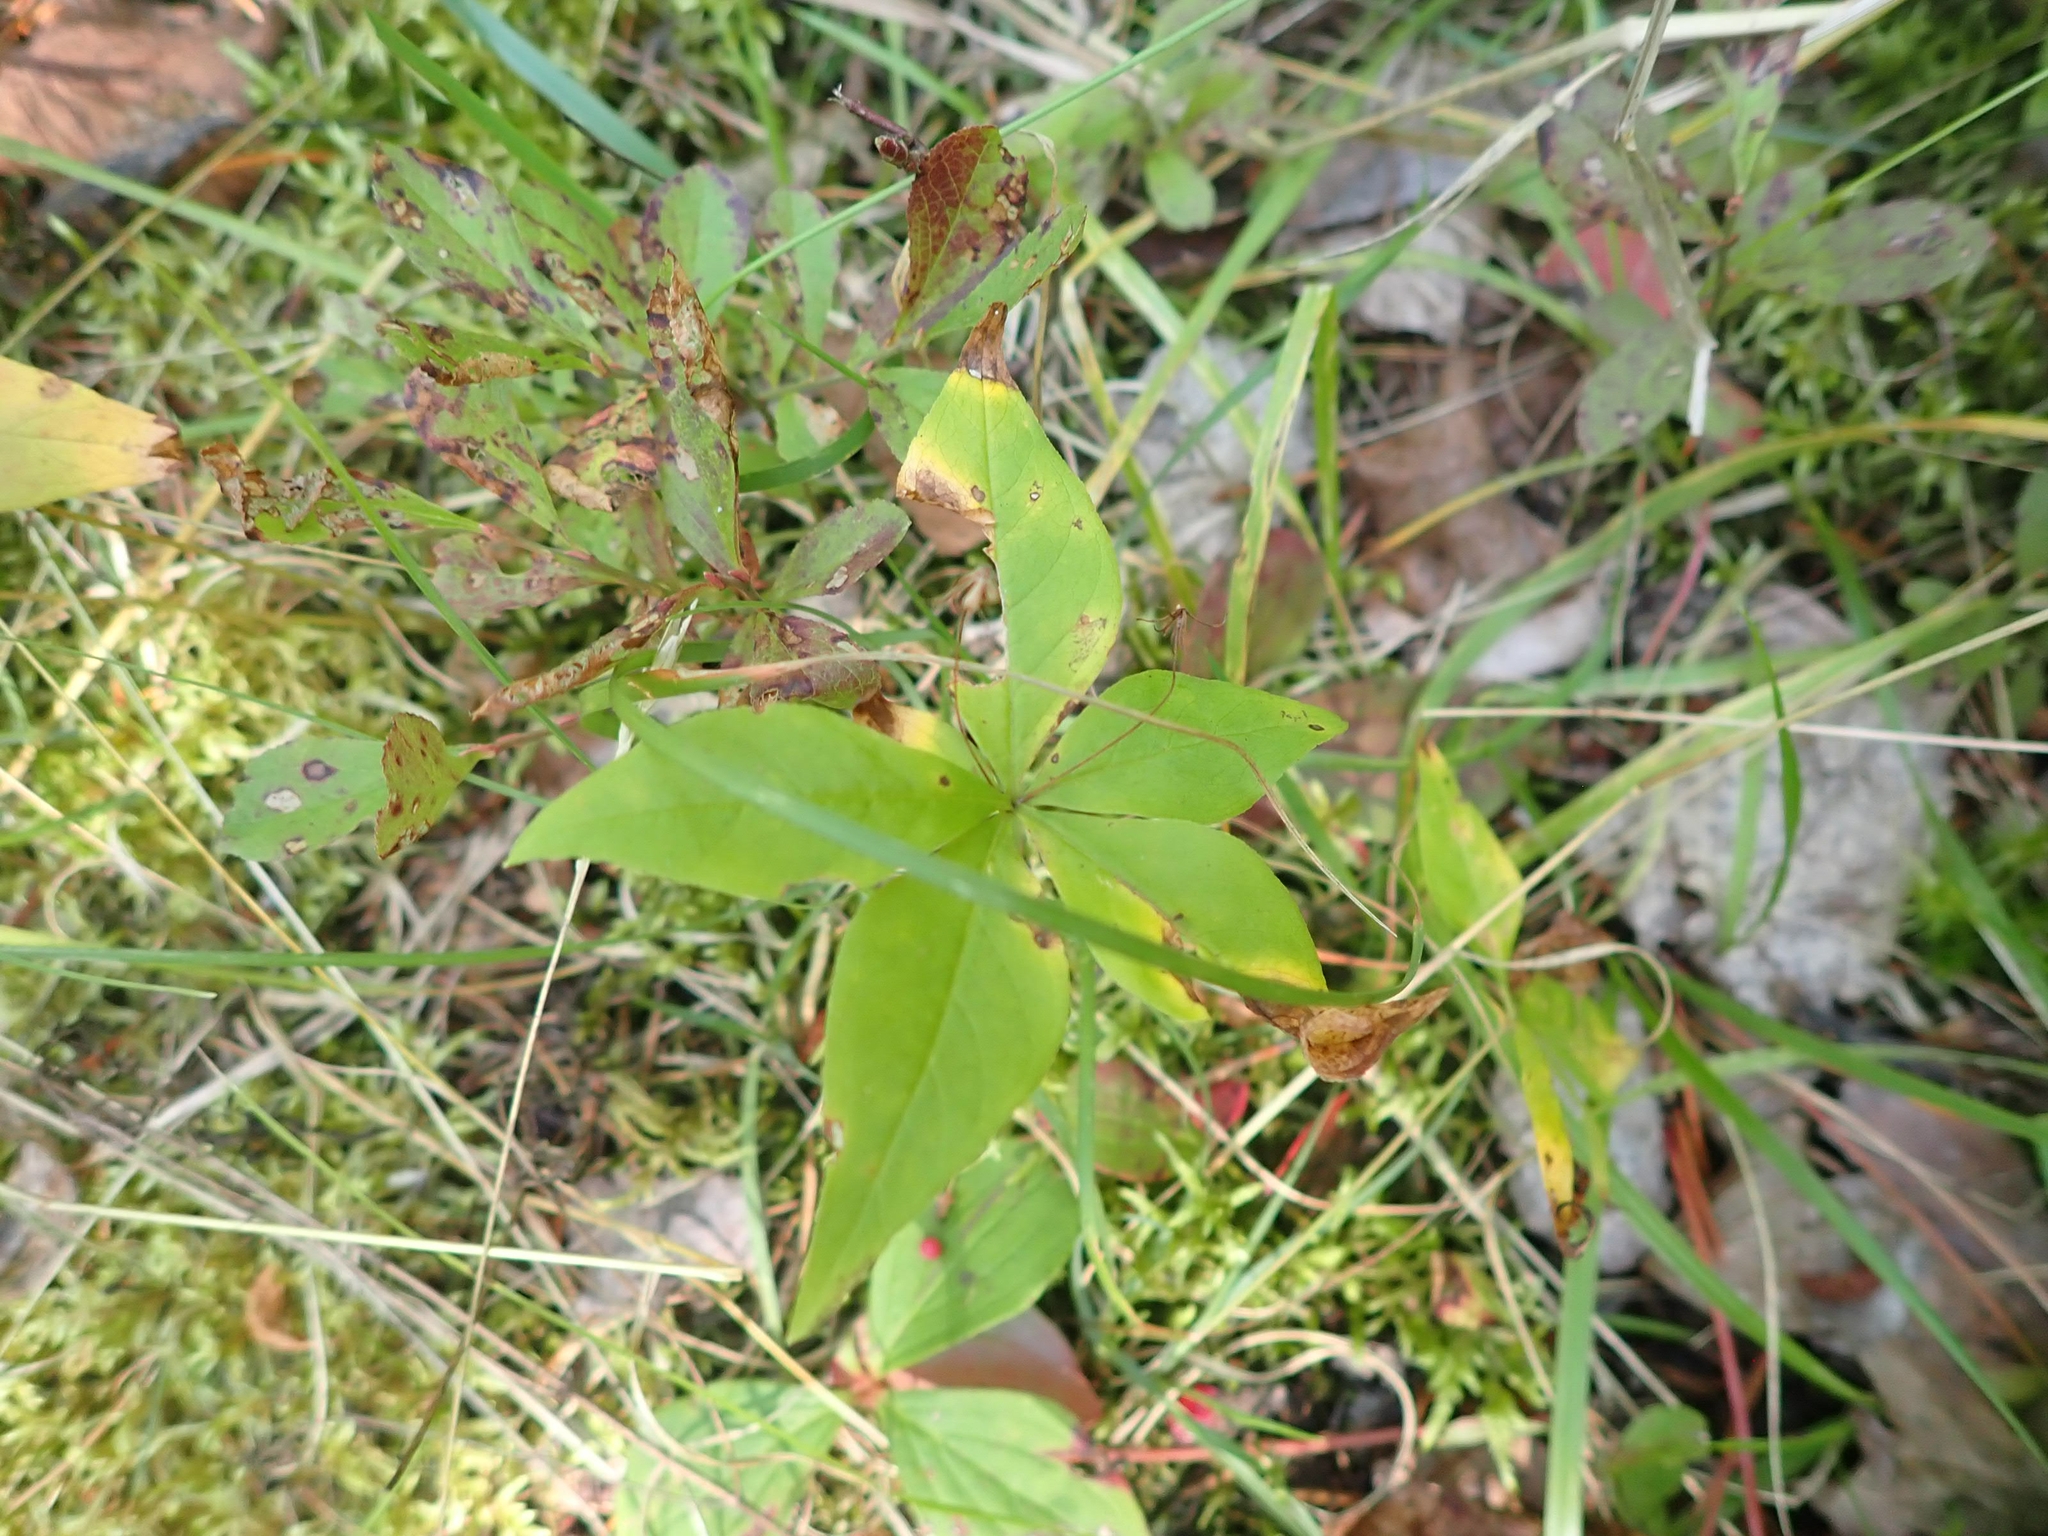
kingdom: Plantae
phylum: Tracheophyta
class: Magnoliopsida
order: Ericales
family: Primulaceae
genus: Lysimachia
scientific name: Lysimachia borealis
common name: American starflower
